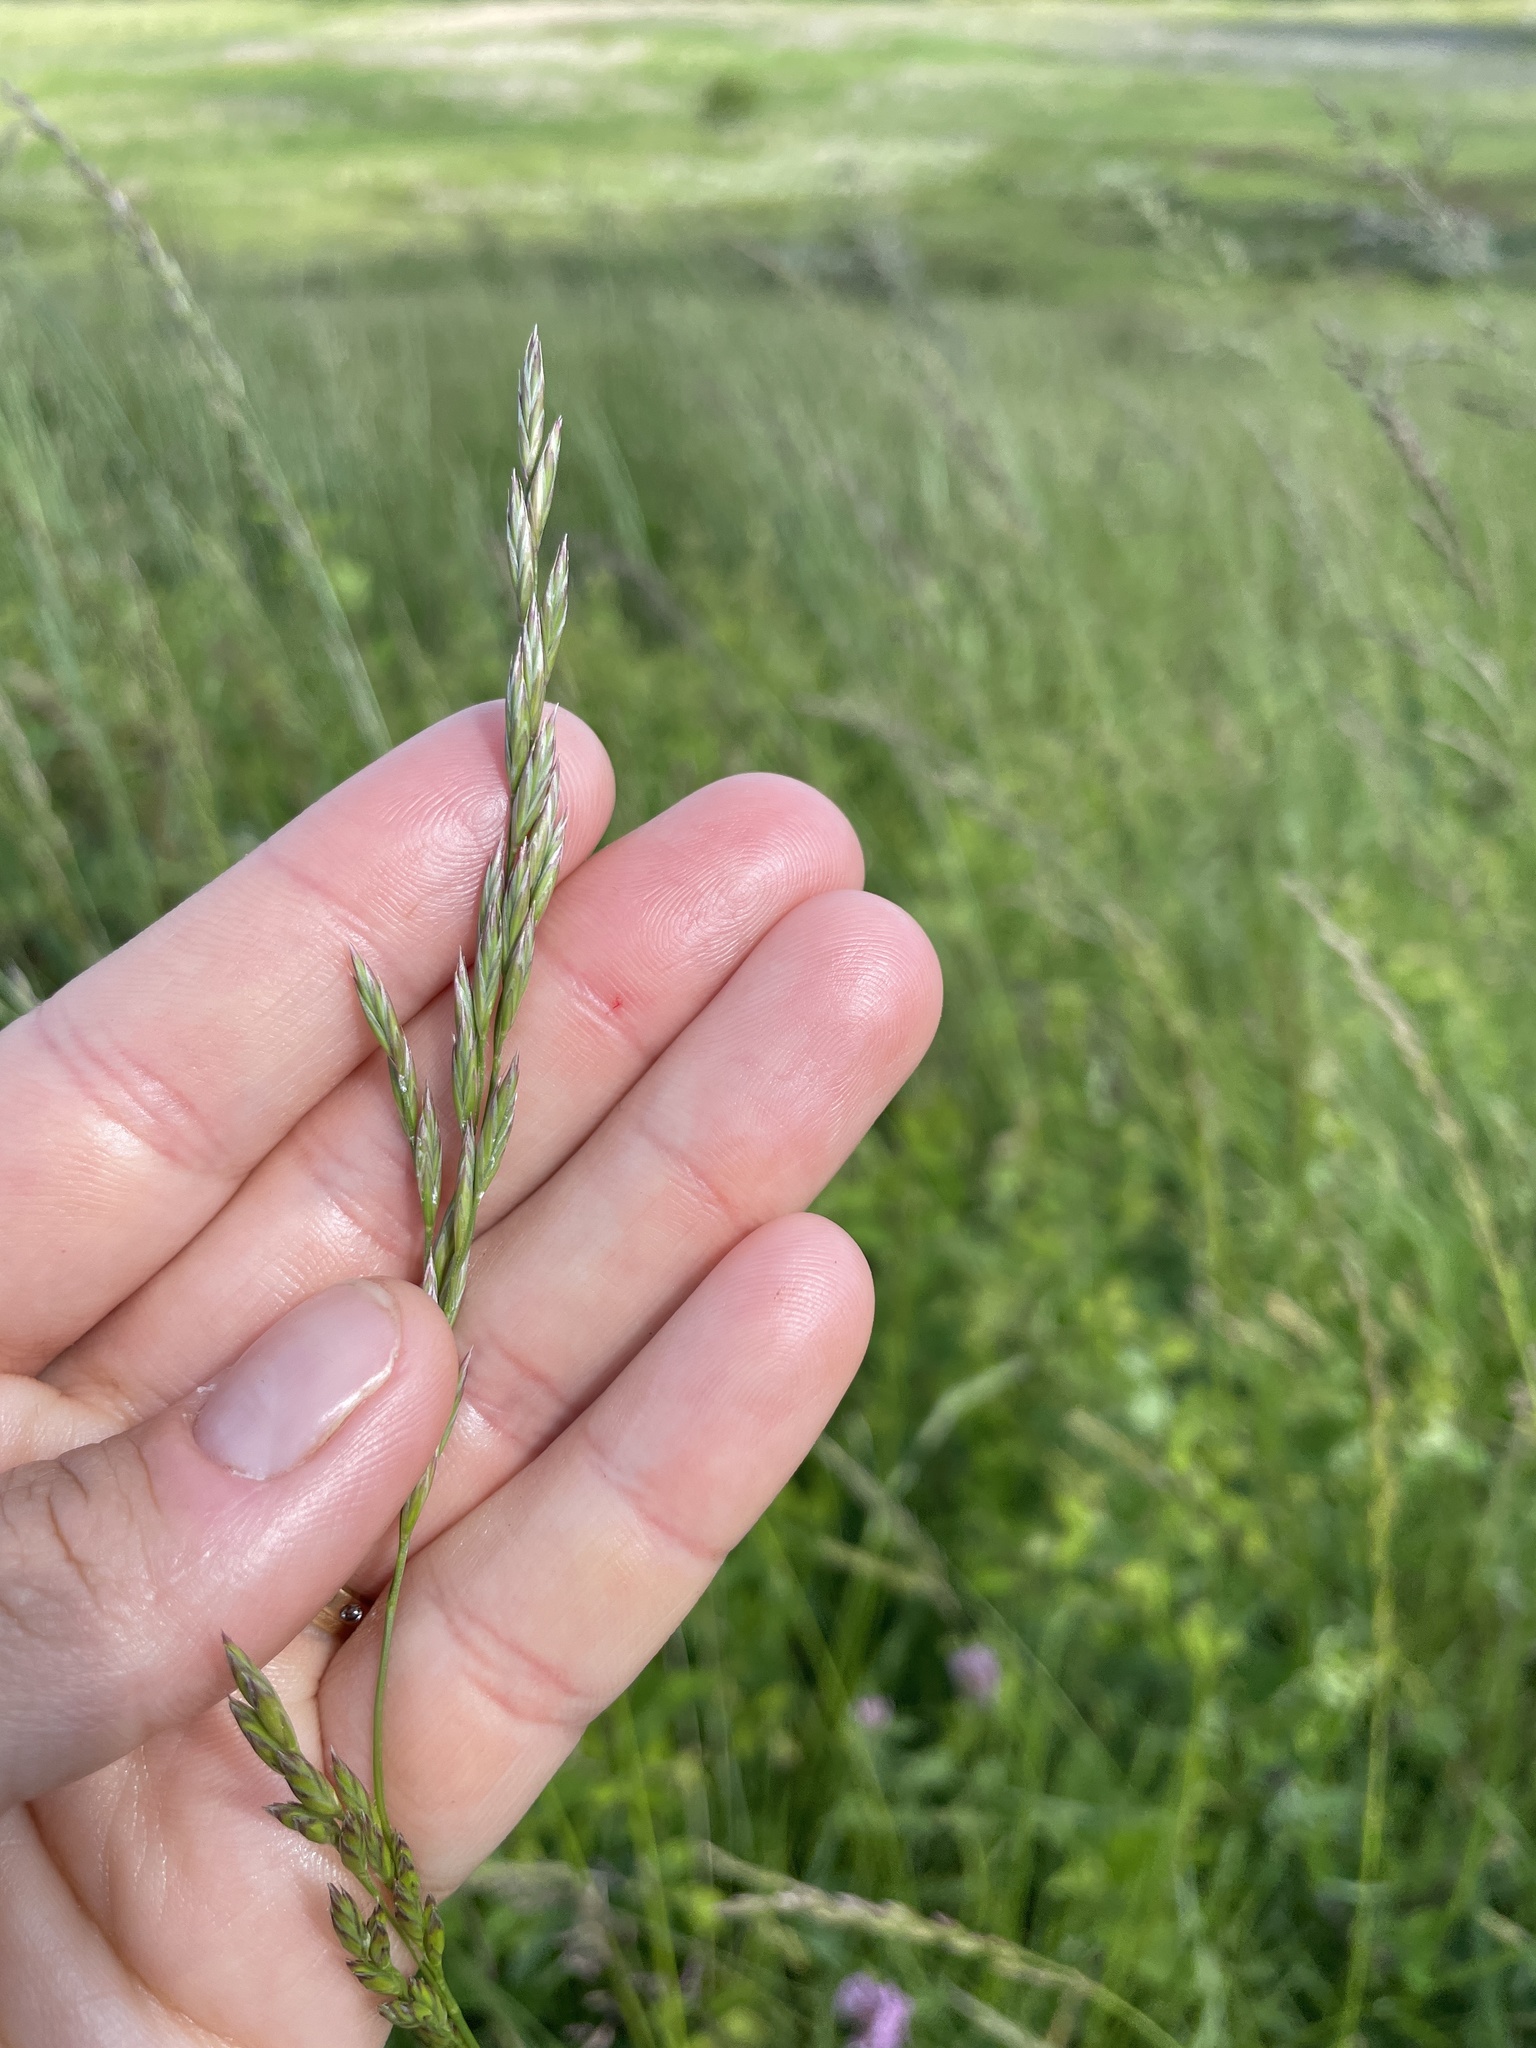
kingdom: Plantae
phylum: Tracheophyta
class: Liliopsida
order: Poales
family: Poaceae
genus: Lolium
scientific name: Lolium arundinaceum
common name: Reed fescue
